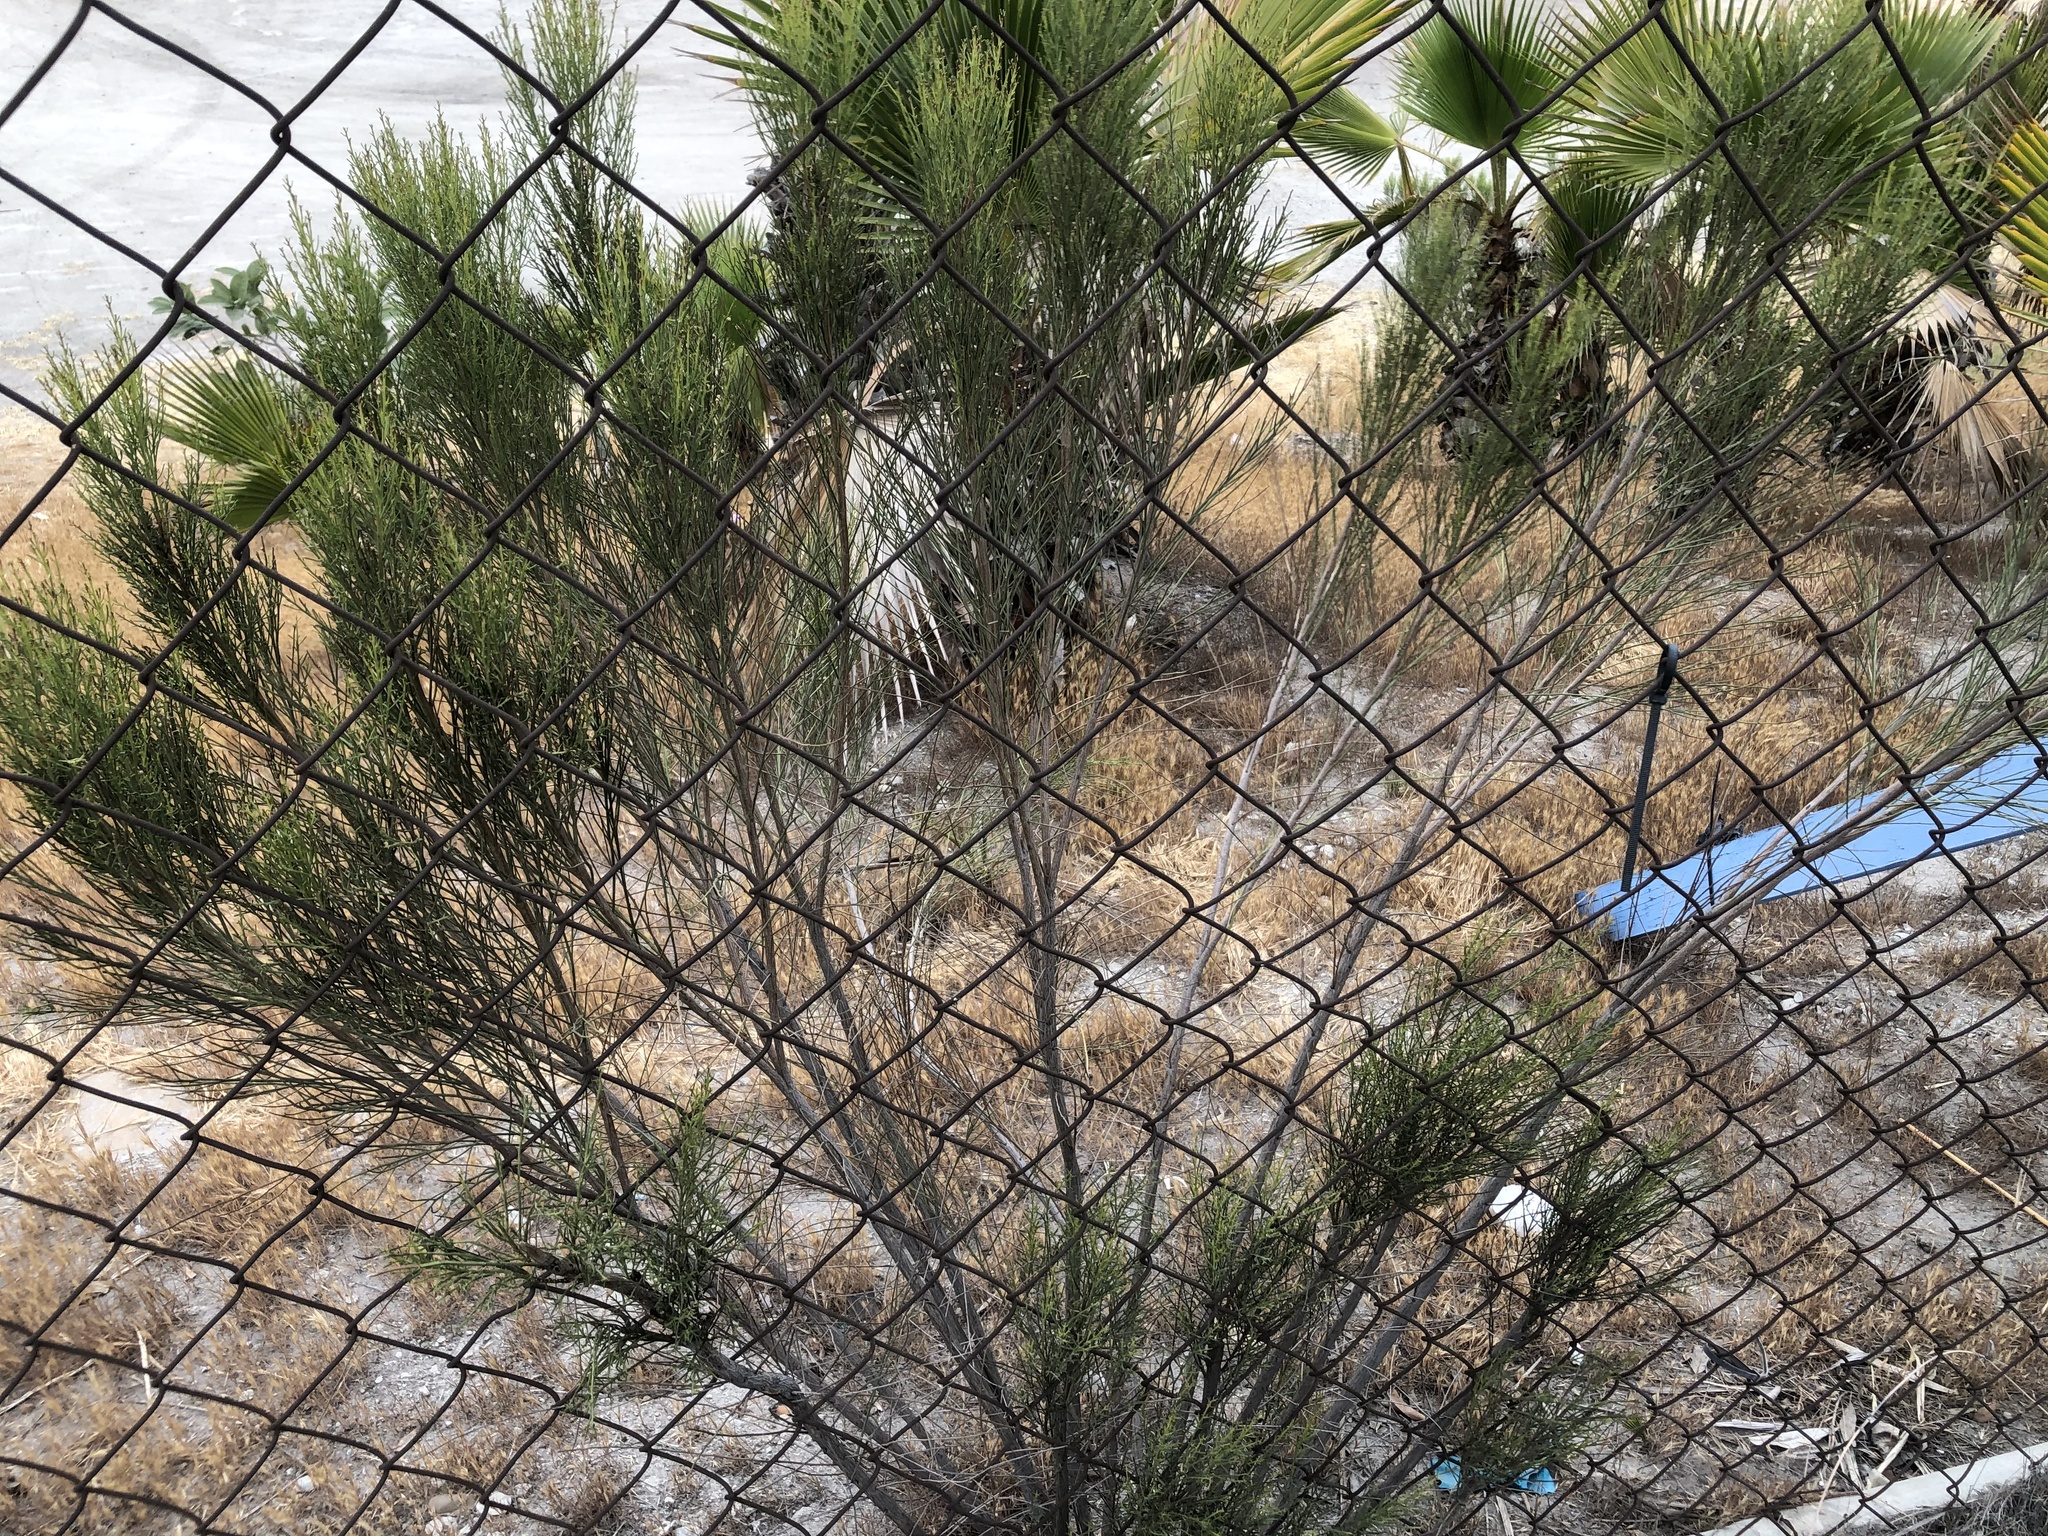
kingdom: Plantae
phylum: Tracheophyta
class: Magnoliopsida
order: Asterales
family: Asteraceae
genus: Baccharis
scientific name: Baccharis sarothroides
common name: Desert-broom
